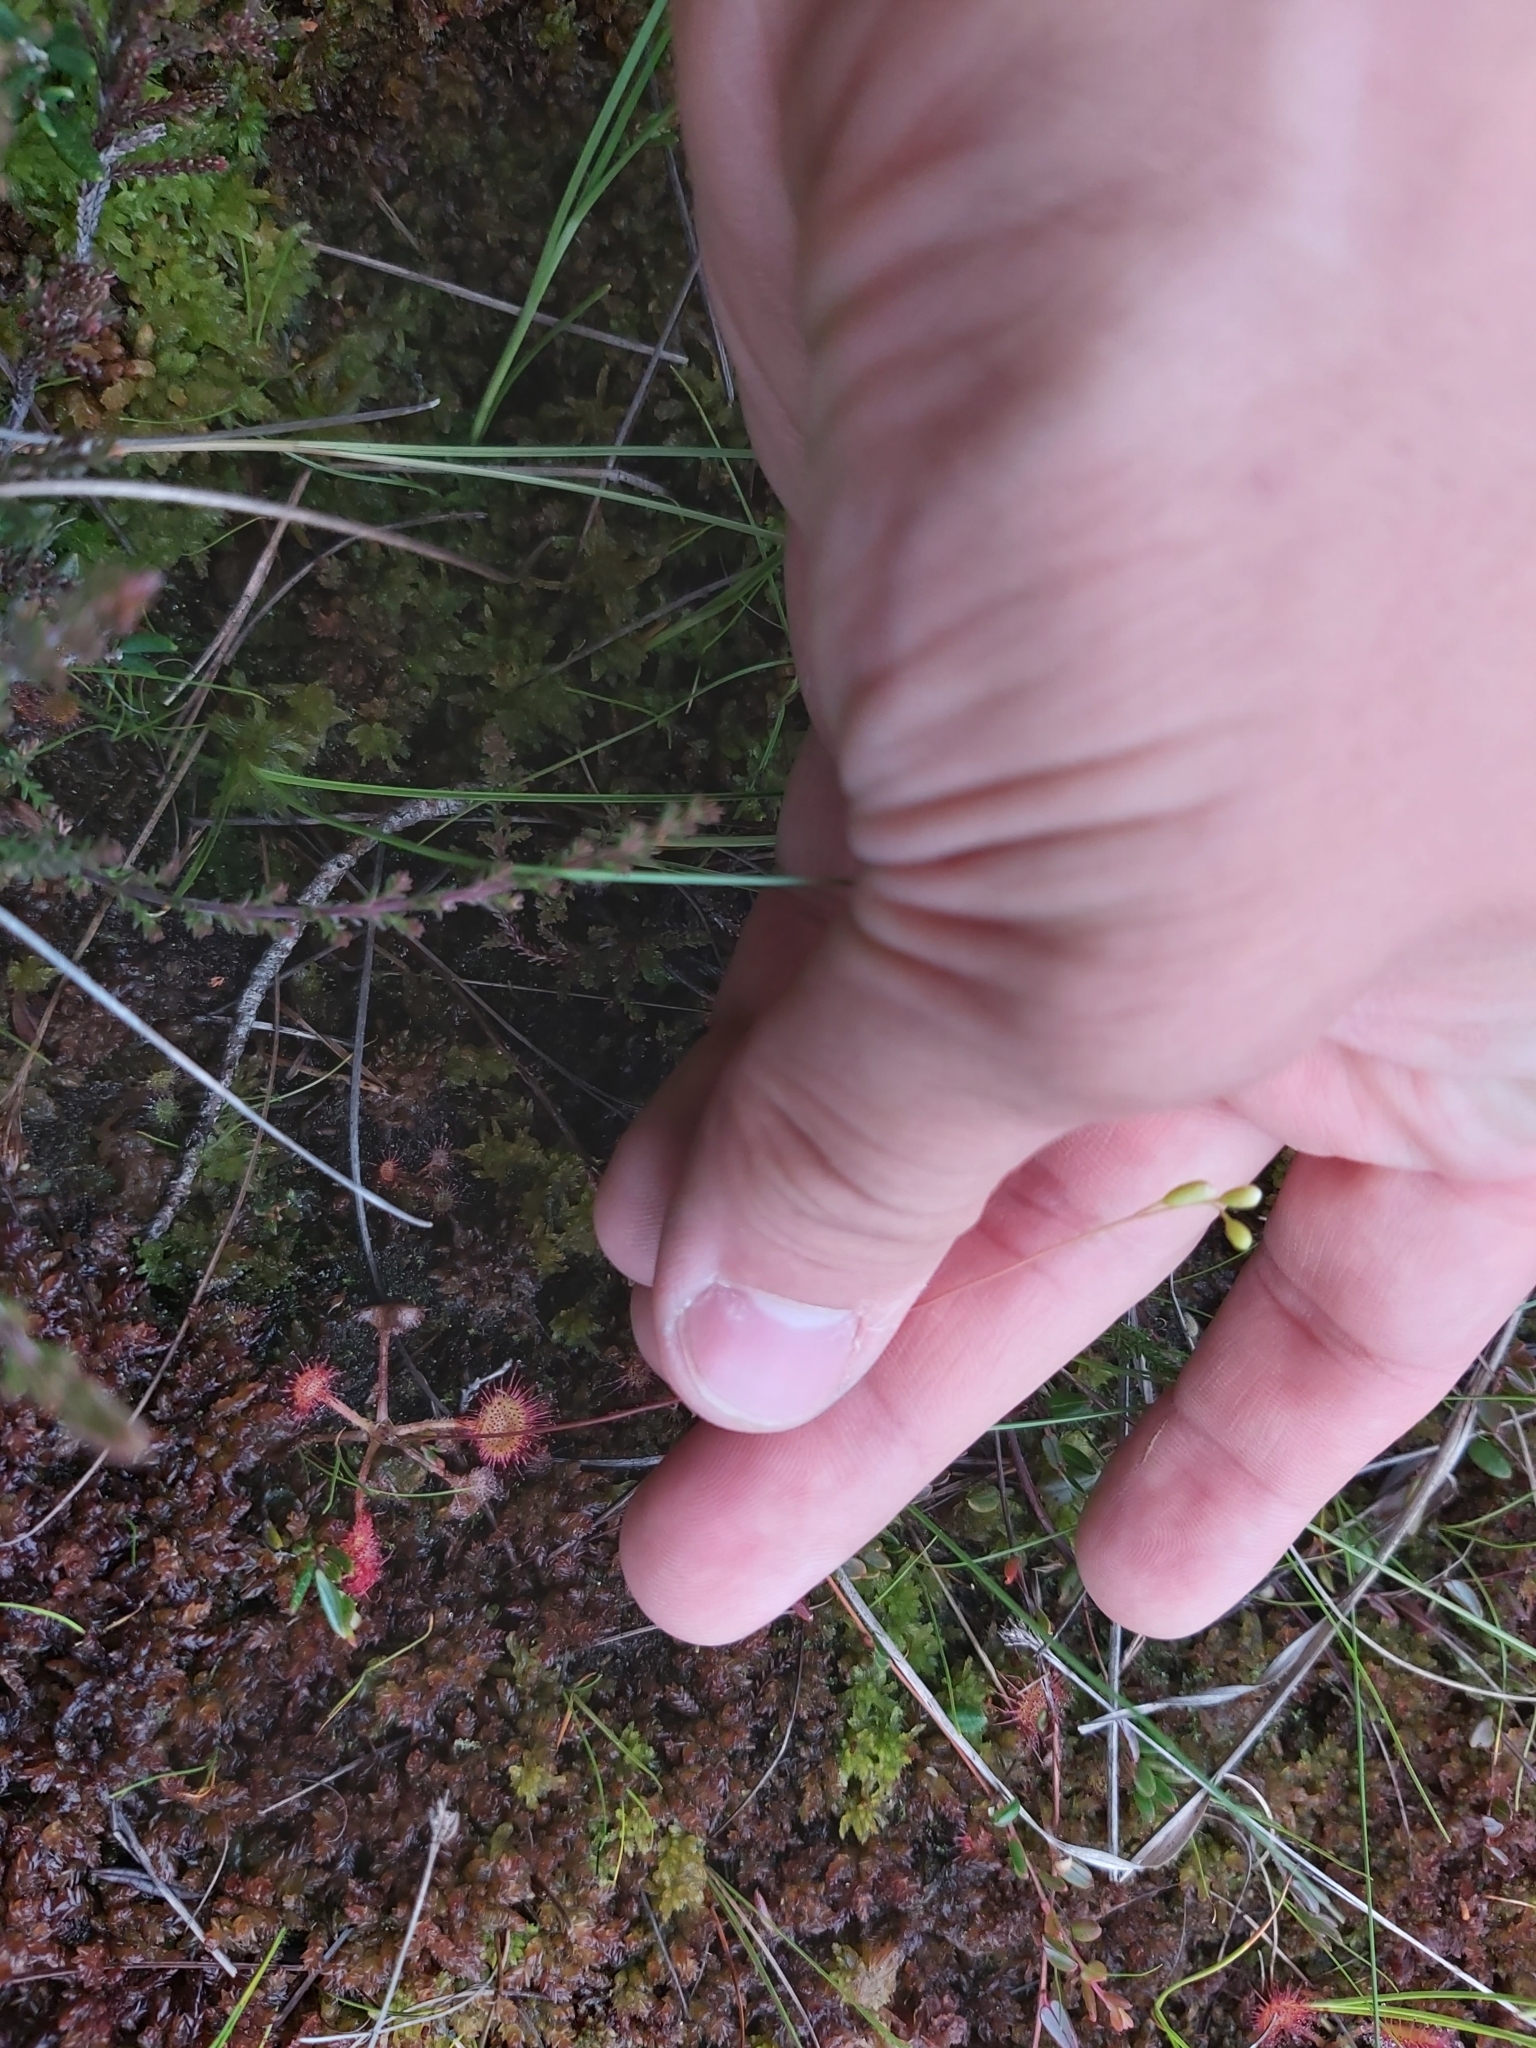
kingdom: Plantae
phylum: Tracheophyta
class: Magnoliopsida
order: Caryophyllales
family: Droseraceae
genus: Drosera
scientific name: Drosera rotundifolia
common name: Round-leaved sundew
